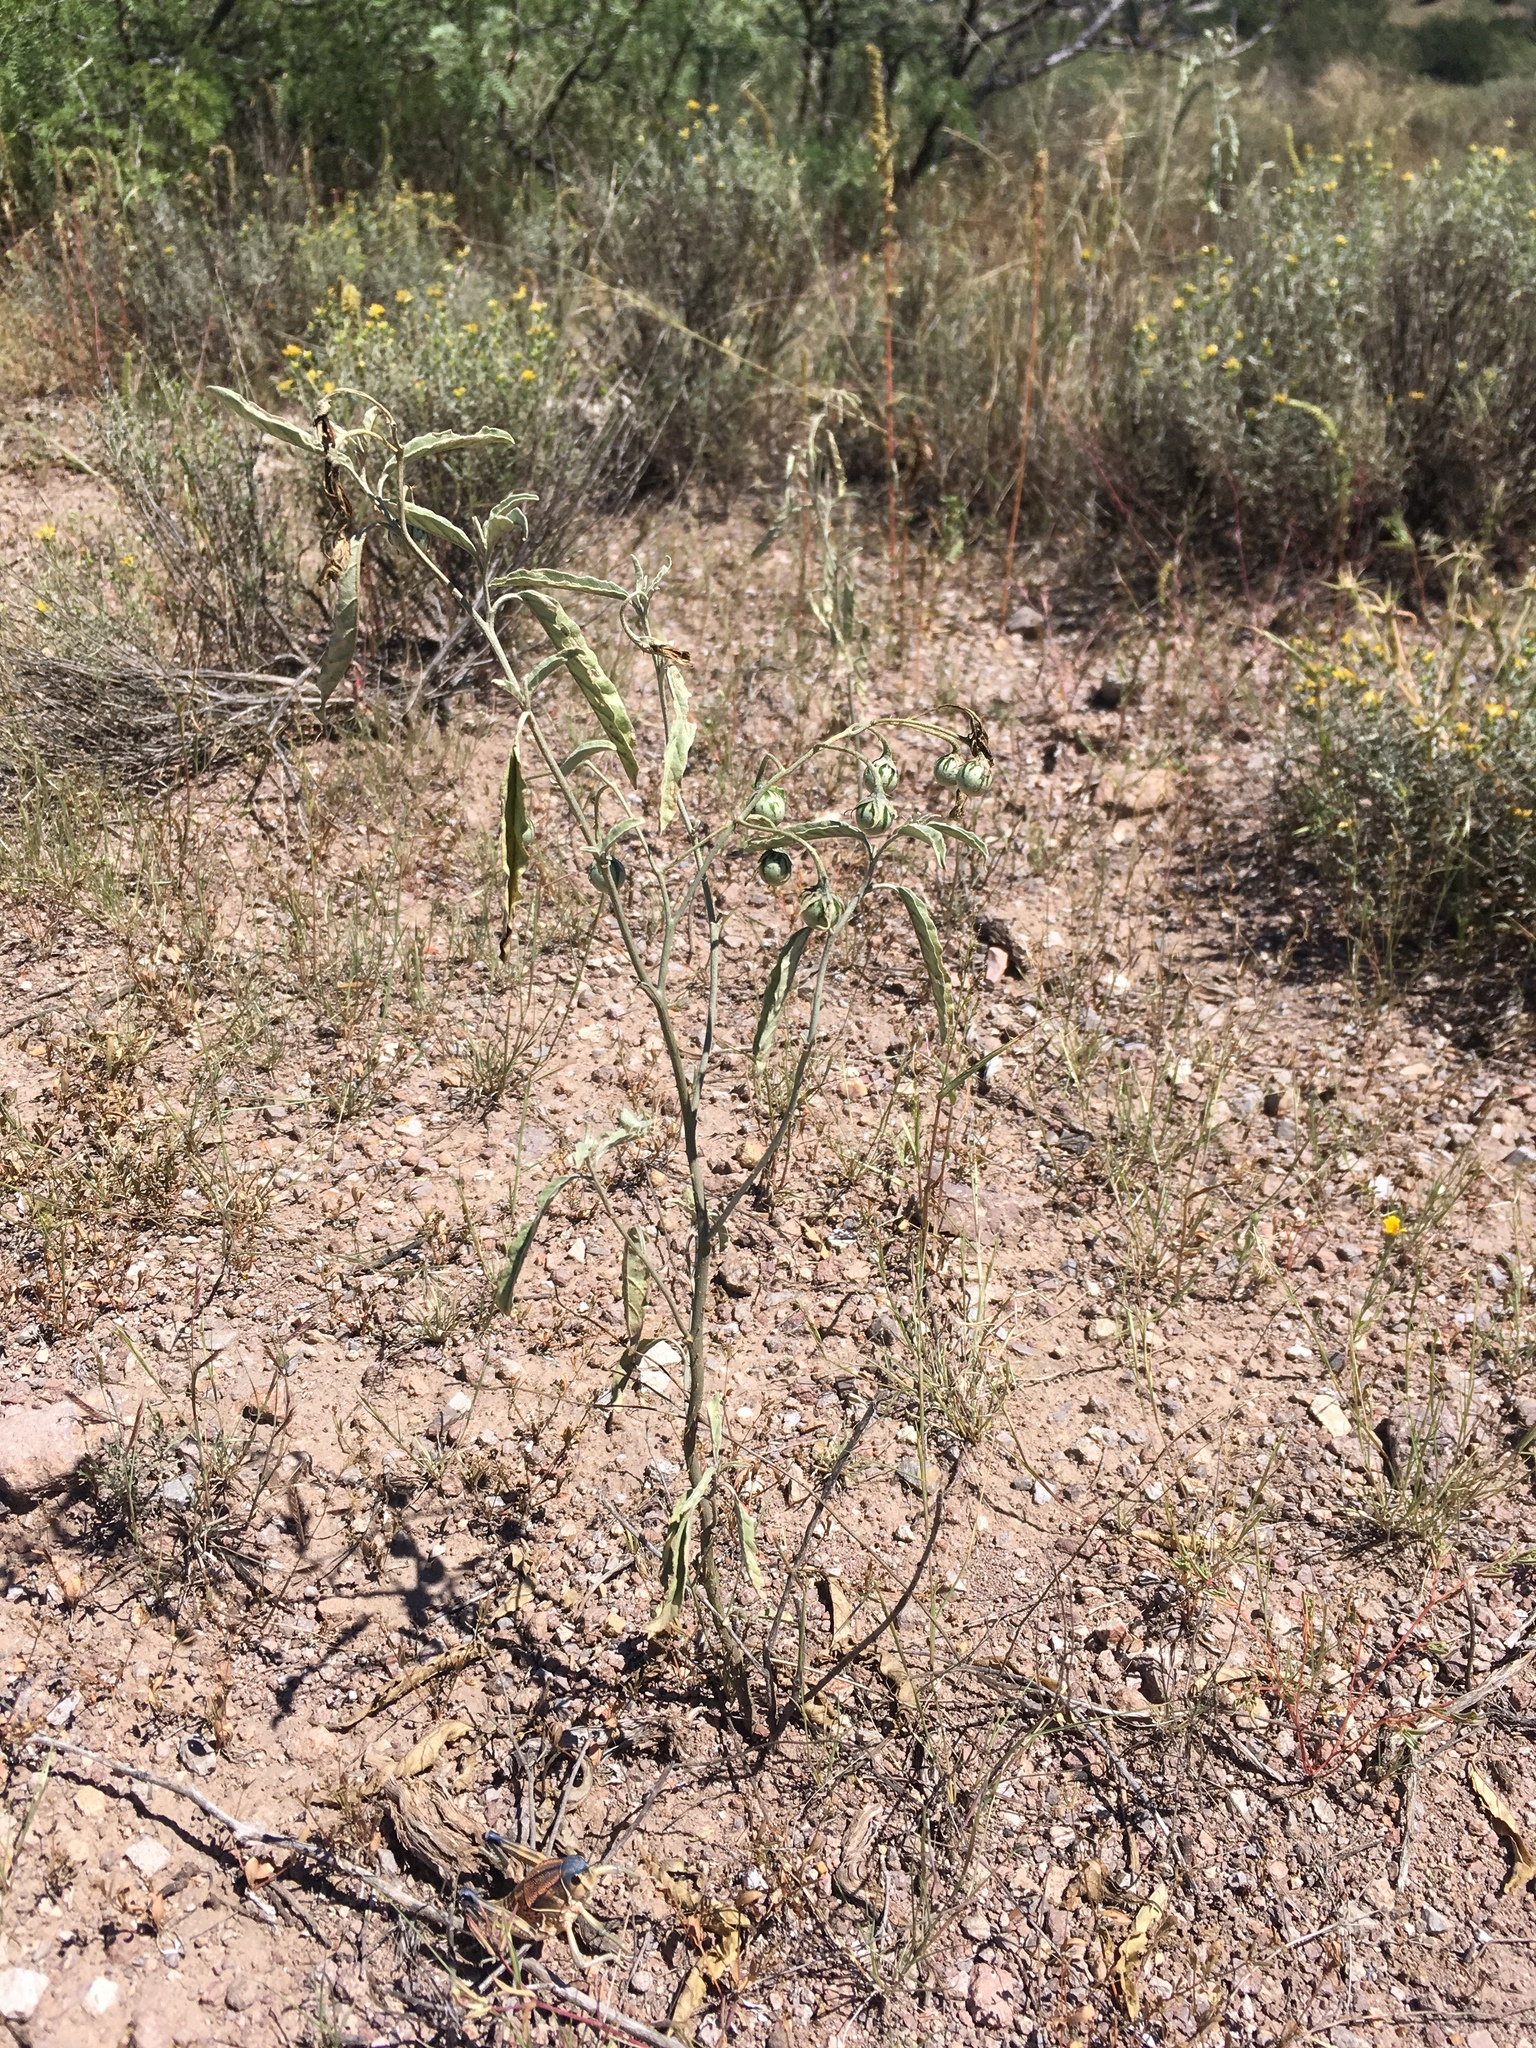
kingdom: Plantae
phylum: Tracheophyta
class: Magnoliopsida
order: Solanales
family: Solanaceae
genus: Solanum
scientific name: Solanum elaeagnifolium
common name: Silverleaf nightshade
